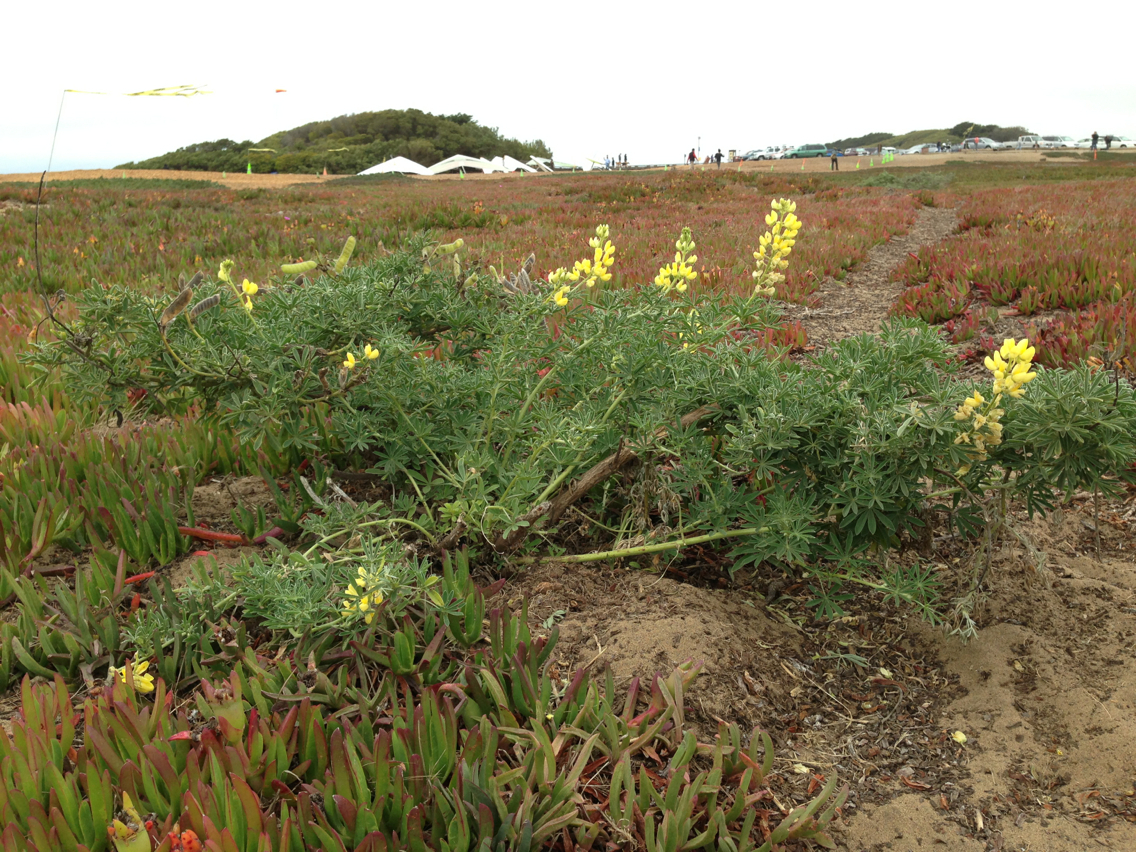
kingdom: Plantae
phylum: Tracheophyta
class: Magnoliopsida
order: Fabales
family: Fabaceae
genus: Lupinus
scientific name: Lupinus arboreus
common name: Yellow bush lupine
